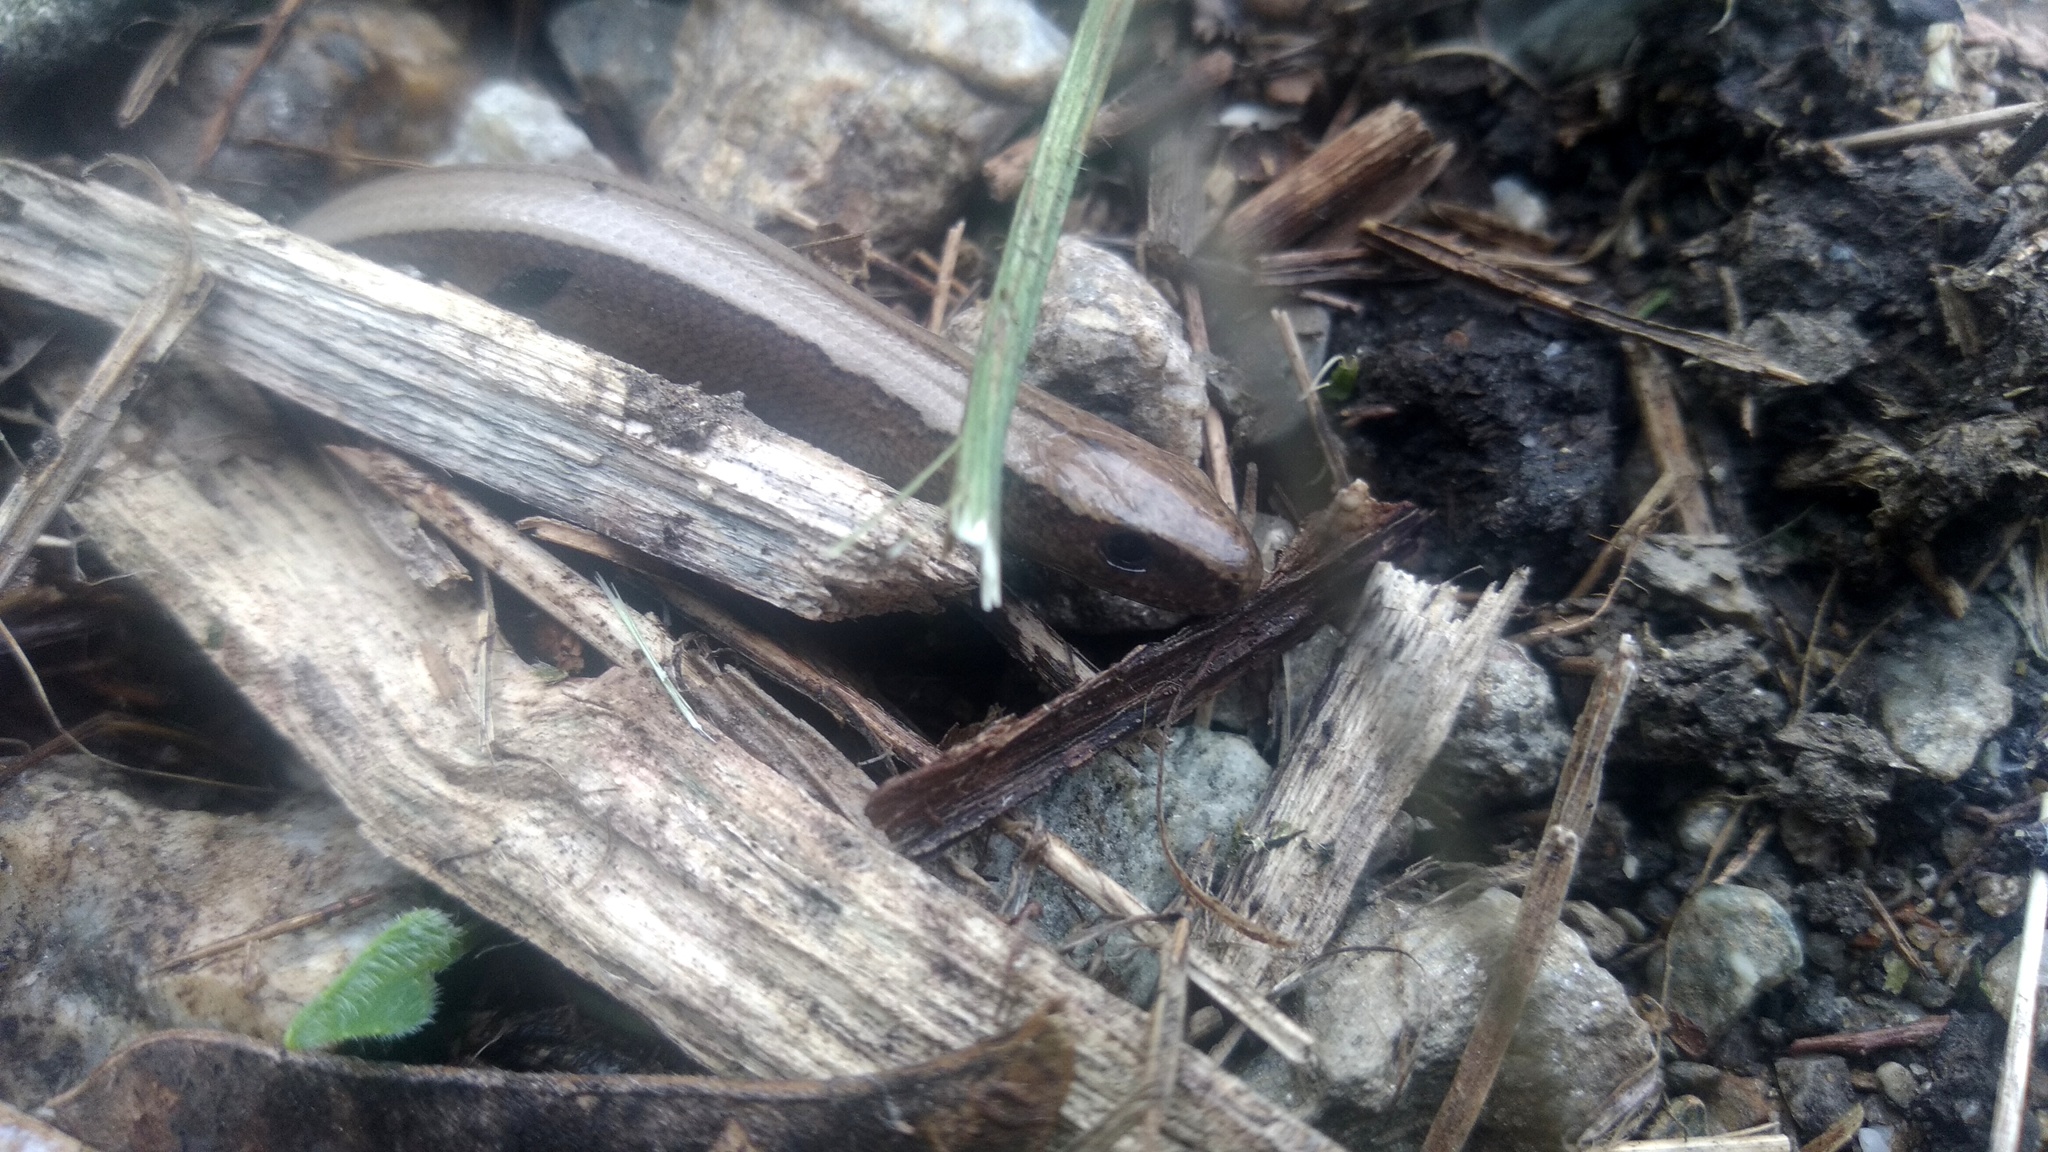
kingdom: Animalia
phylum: Chordata
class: Squamata
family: Anguidae
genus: Anguis
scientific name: Anguis fragilis
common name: Slow worm
